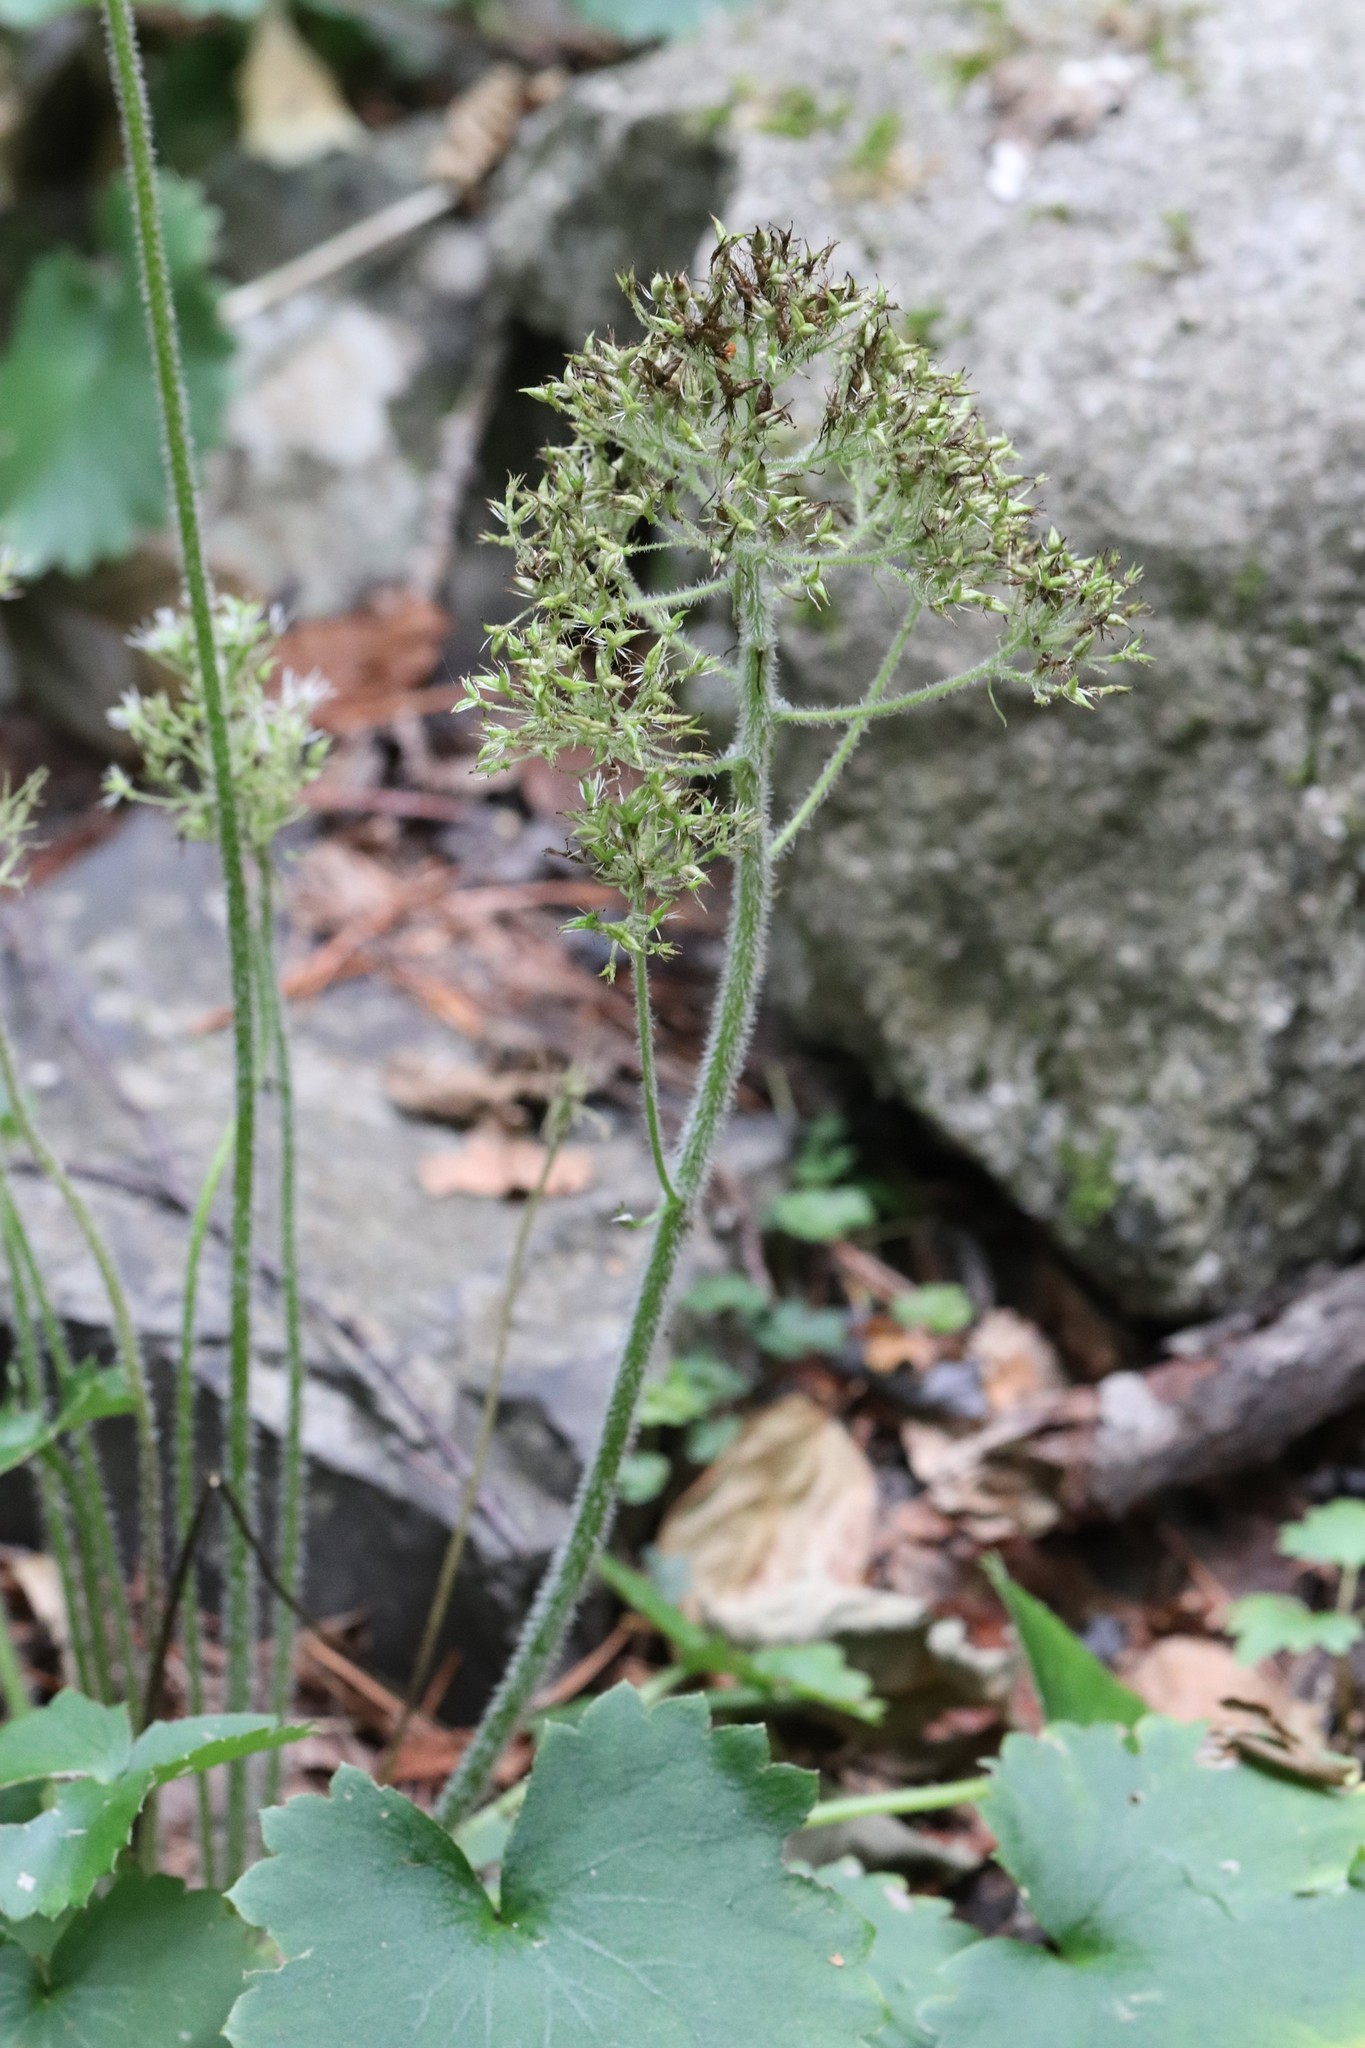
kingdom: Plantae
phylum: Tracheophyta
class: Magnoliopsida
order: Saxifragales
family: Saxifragaceae
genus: Micranthes
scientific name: Micranthes manchuriensis
